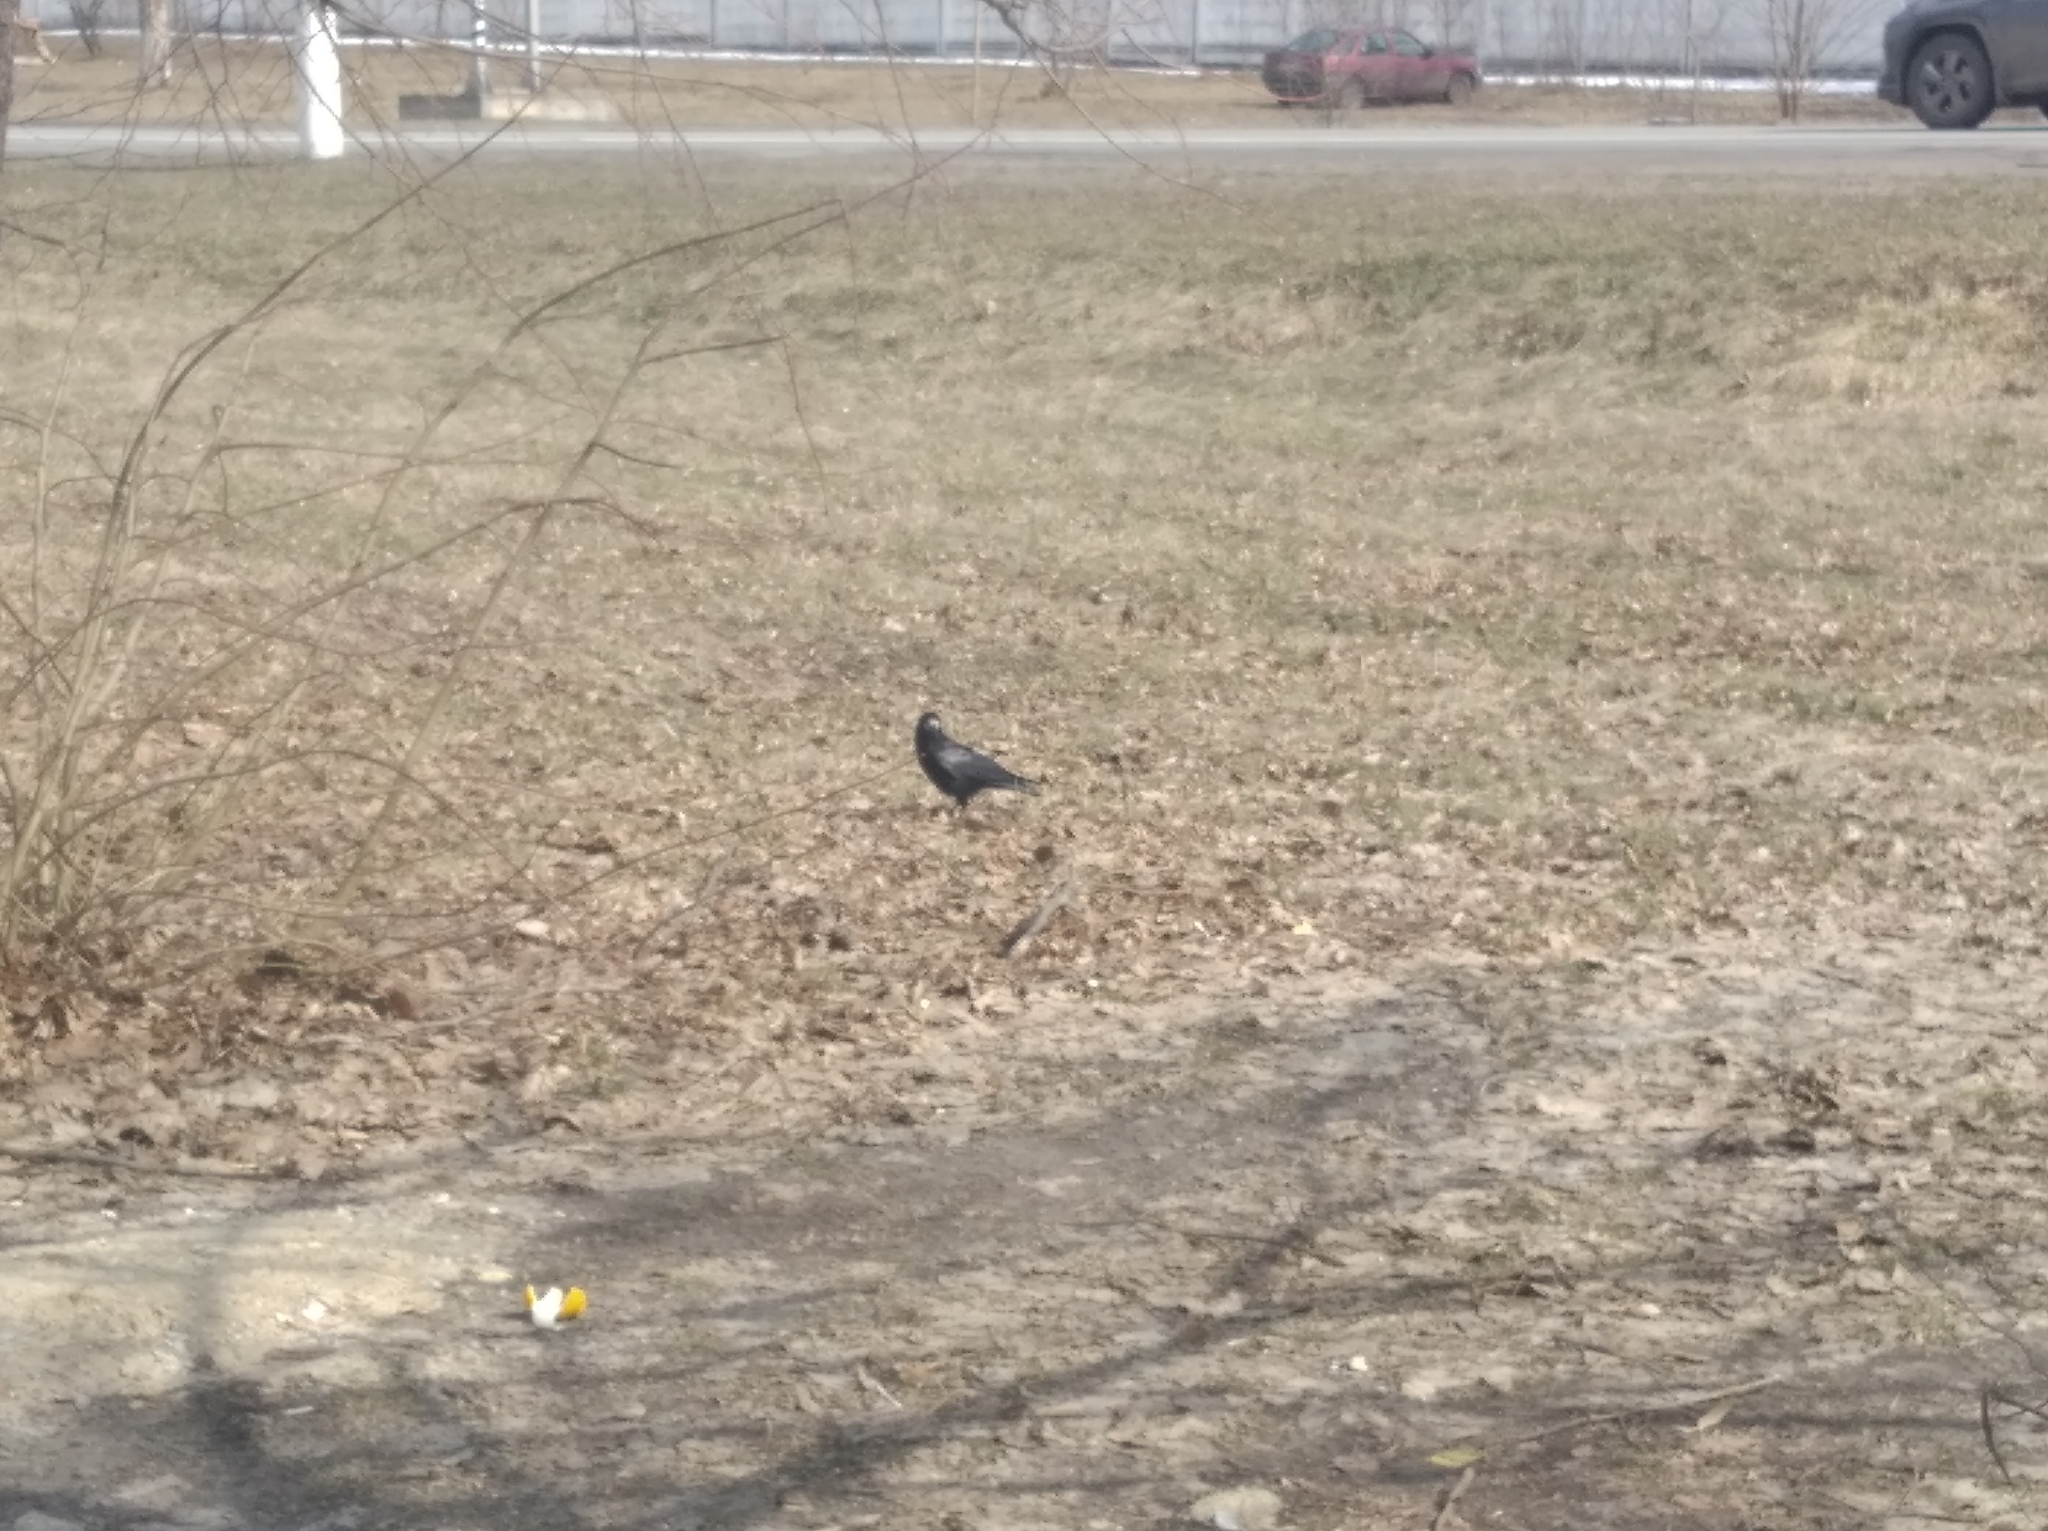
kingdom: Animalia
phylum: Chordata
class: Aves
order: Passeriformes
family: Corvidae
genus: Corvus
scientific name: Corvus frugilegus
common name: Rook
